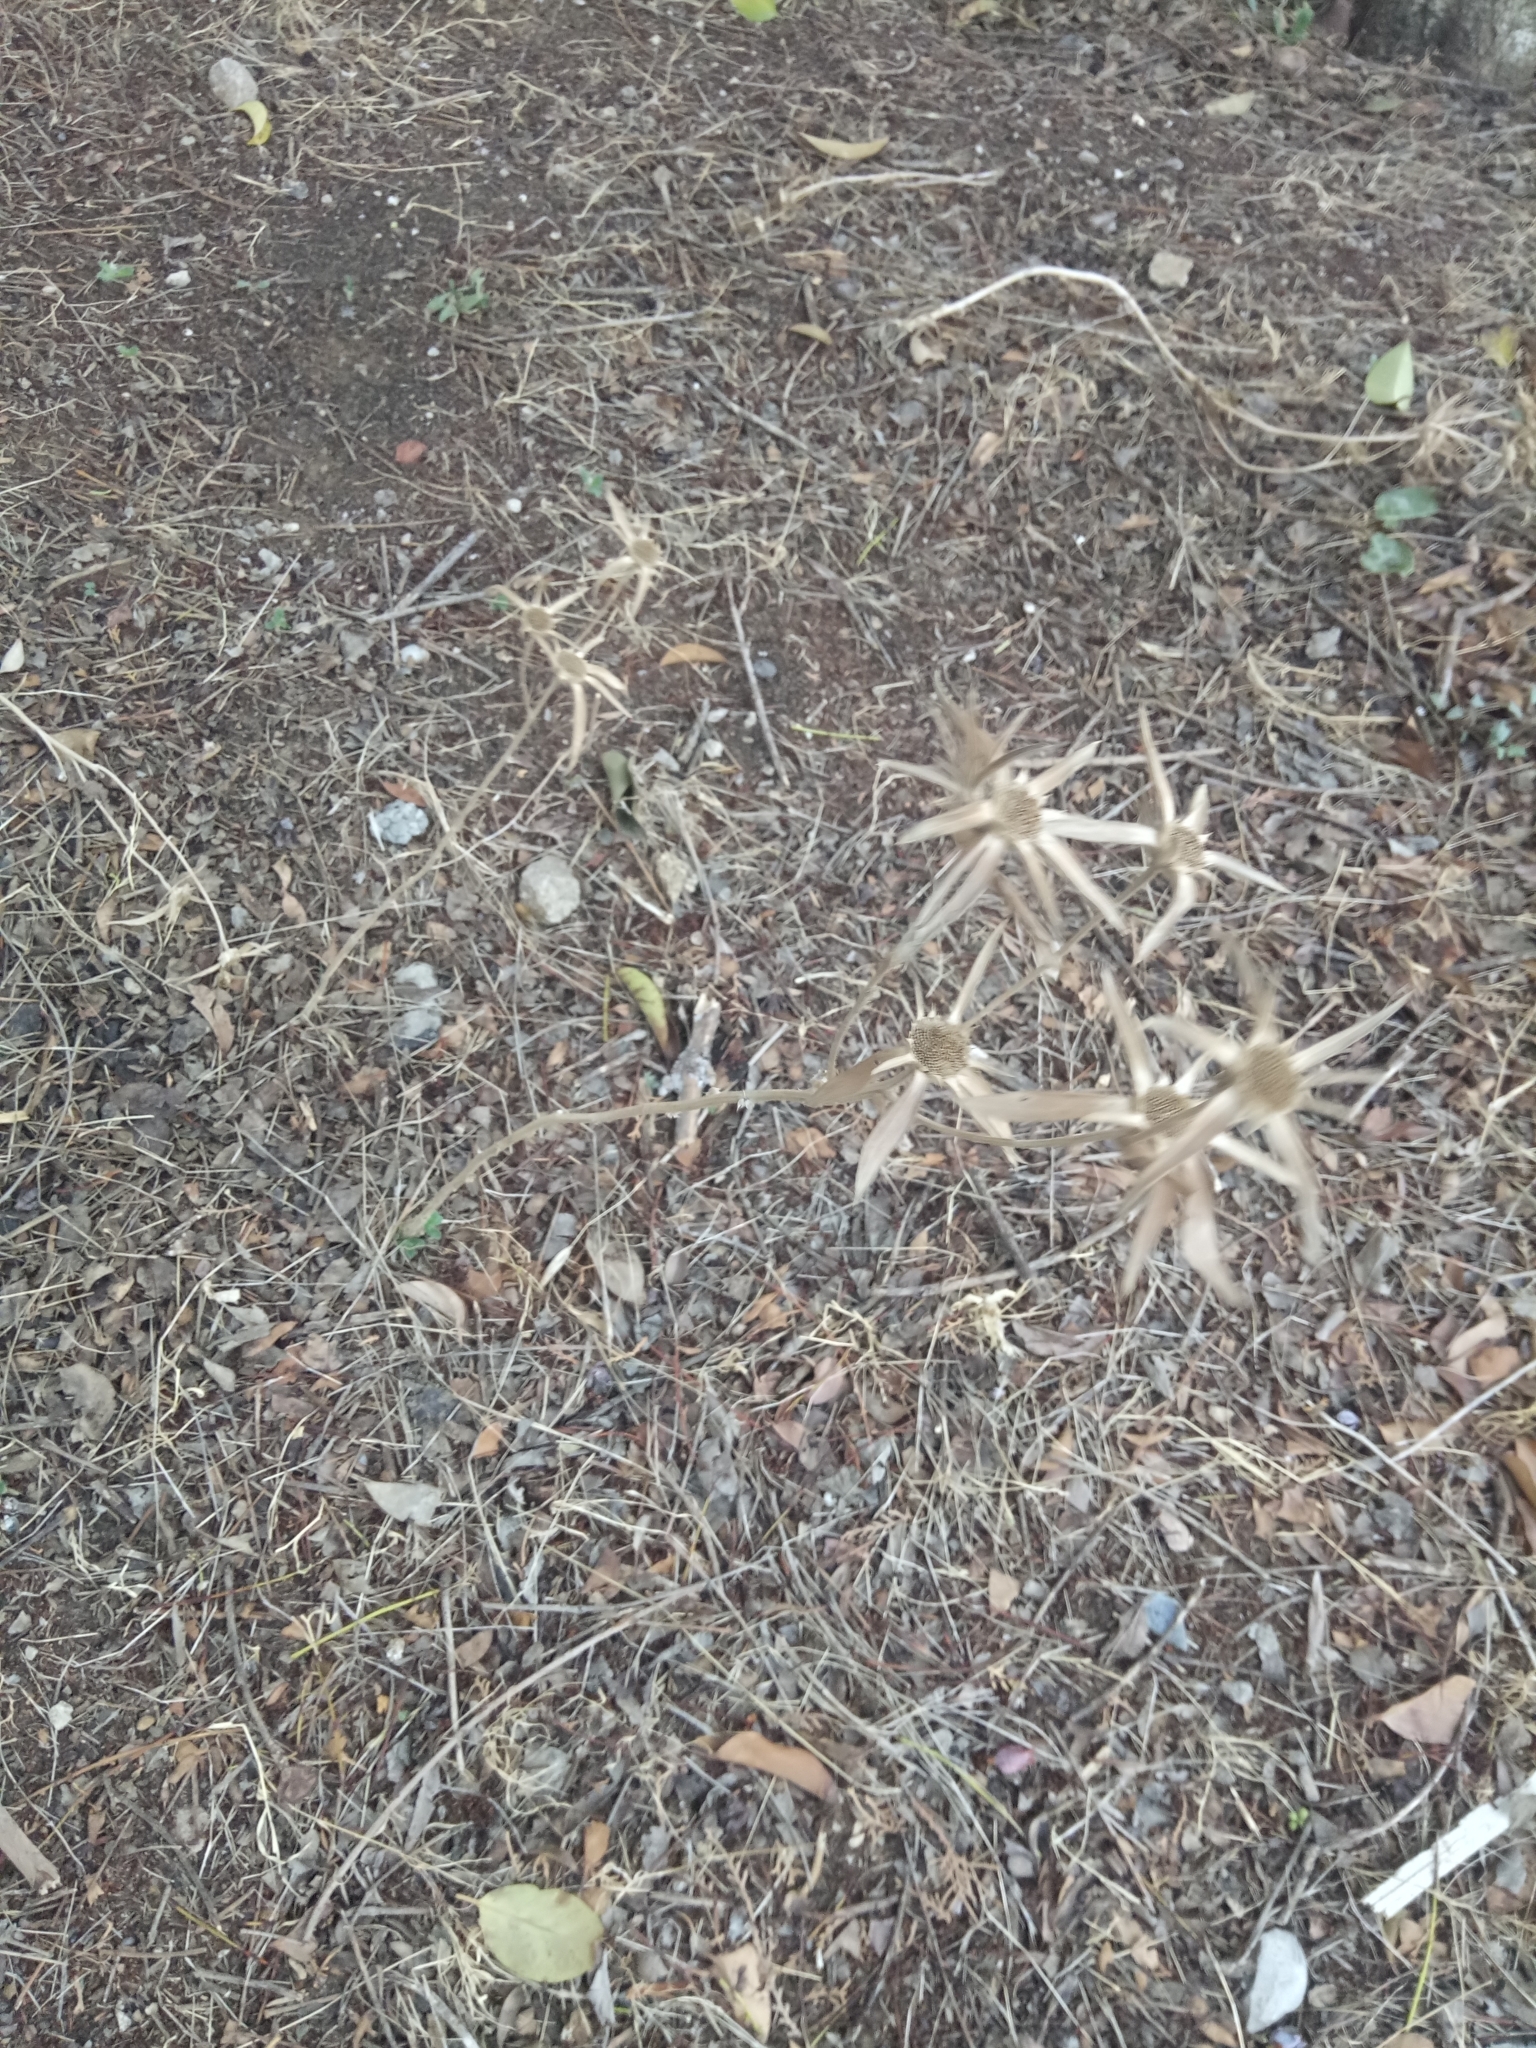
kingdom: Plantae
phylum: Tracheophyta
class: Magnoliopsida
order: Asterales
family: Asteraceae
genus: Pallenis
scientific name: Pallenis spinosa
